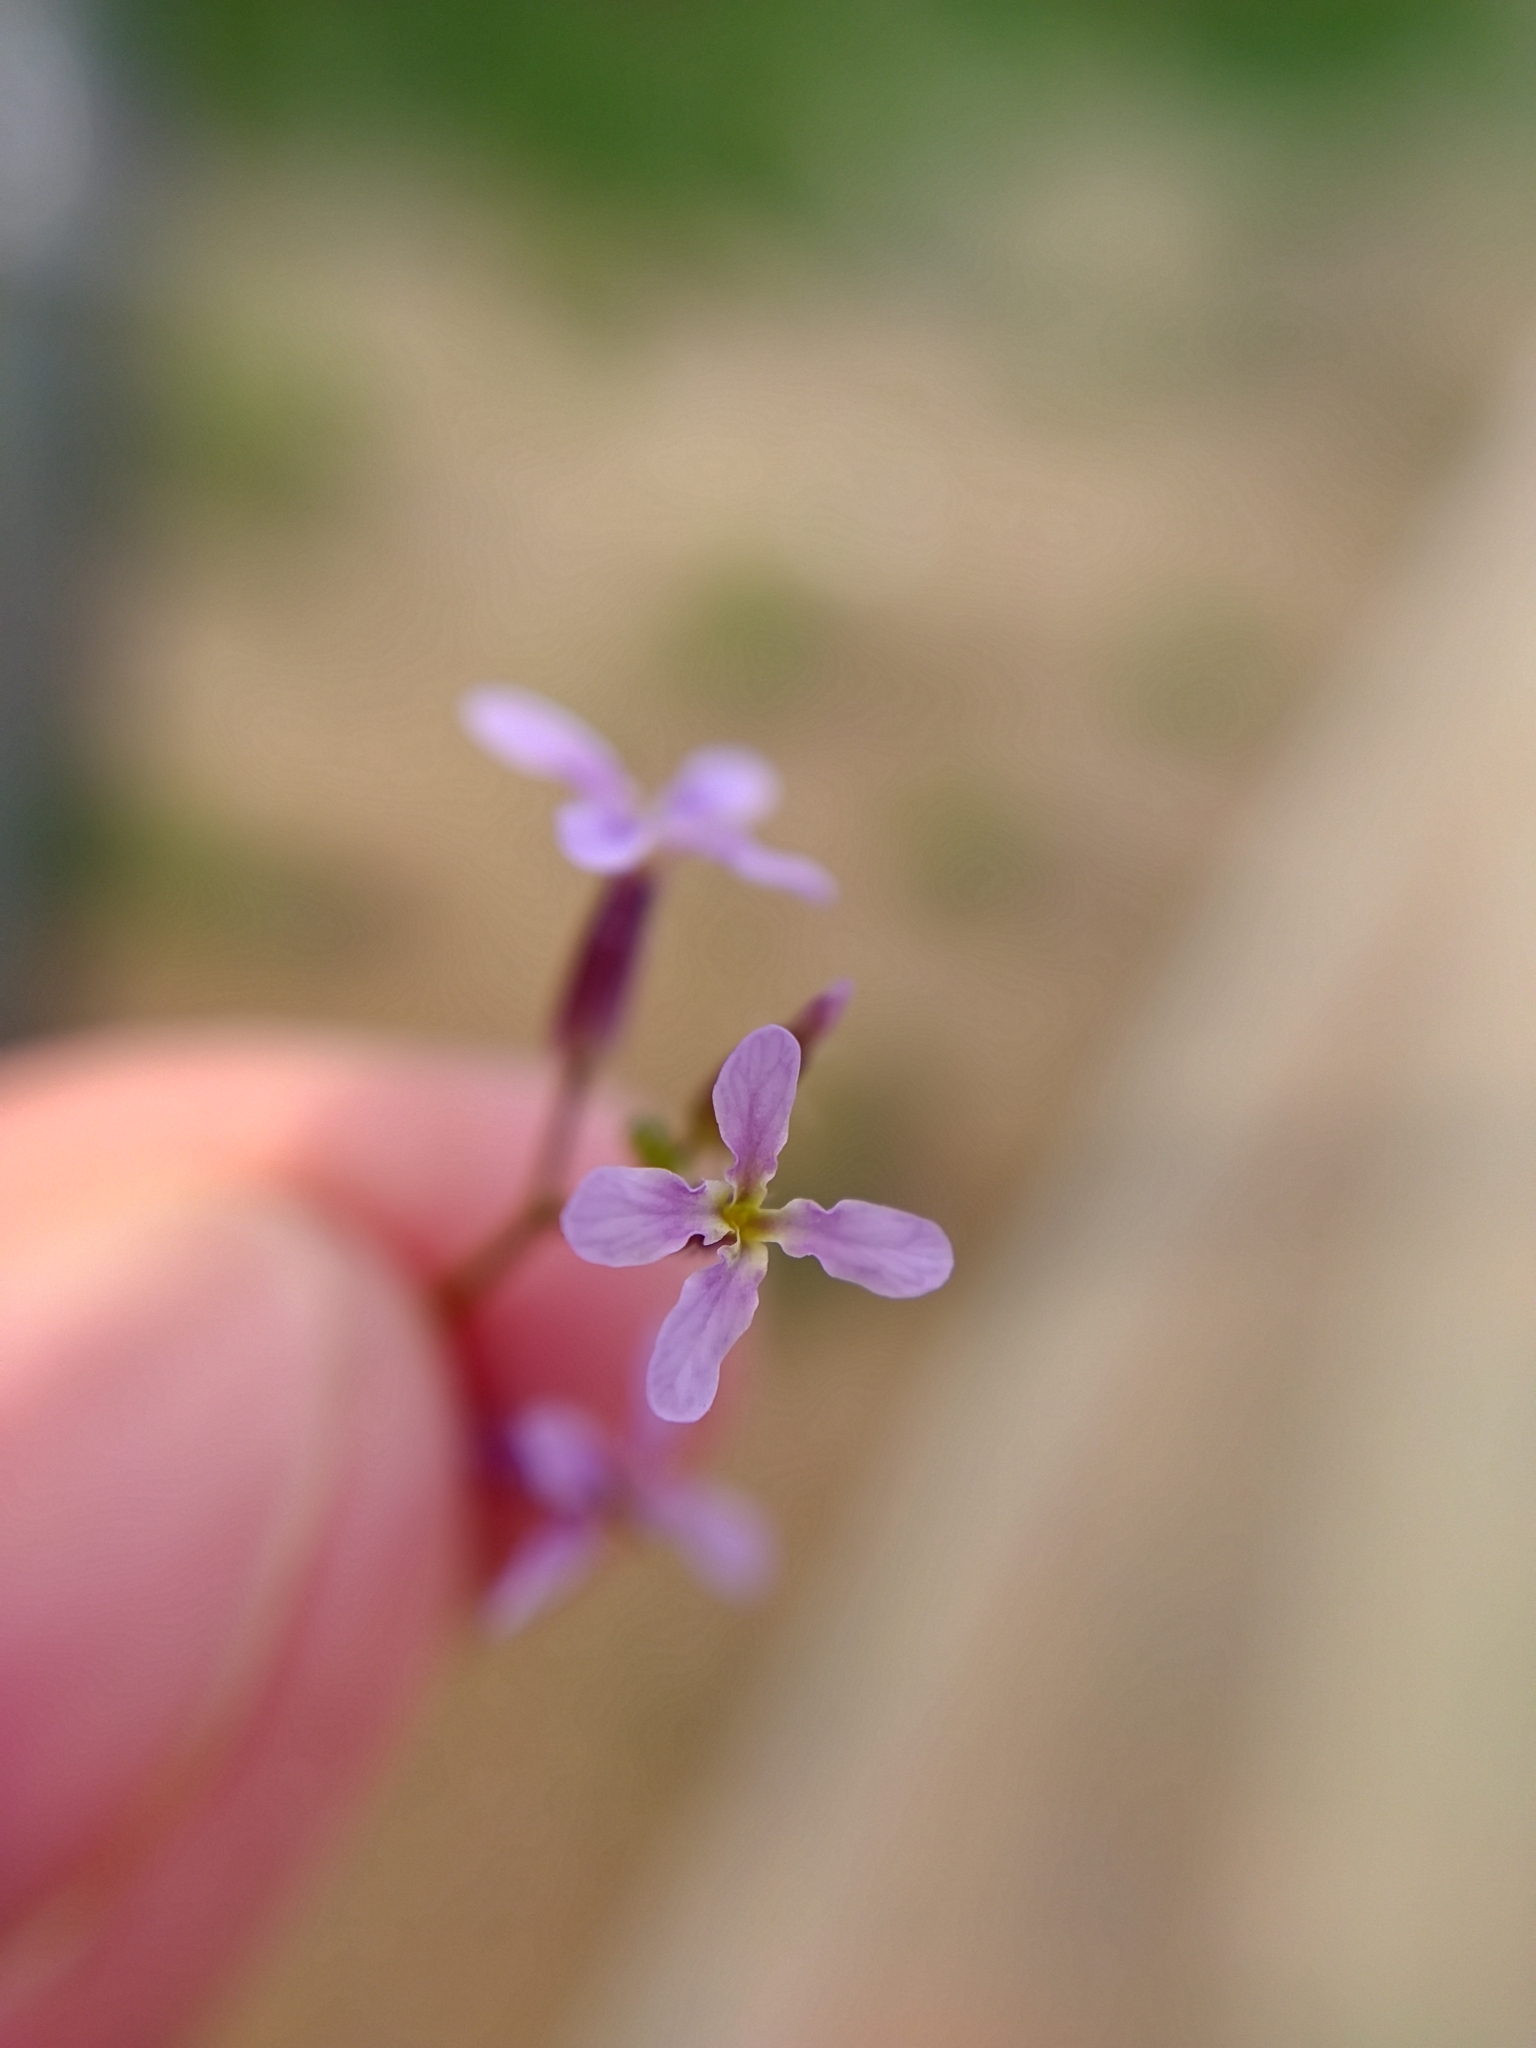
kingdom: Plantae
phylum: Tracheophyta
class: Magnoliopsida
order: Brassicales
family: Brassicaceae
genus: Chorispora
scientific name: Chorispora tenella
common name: Crossflower
